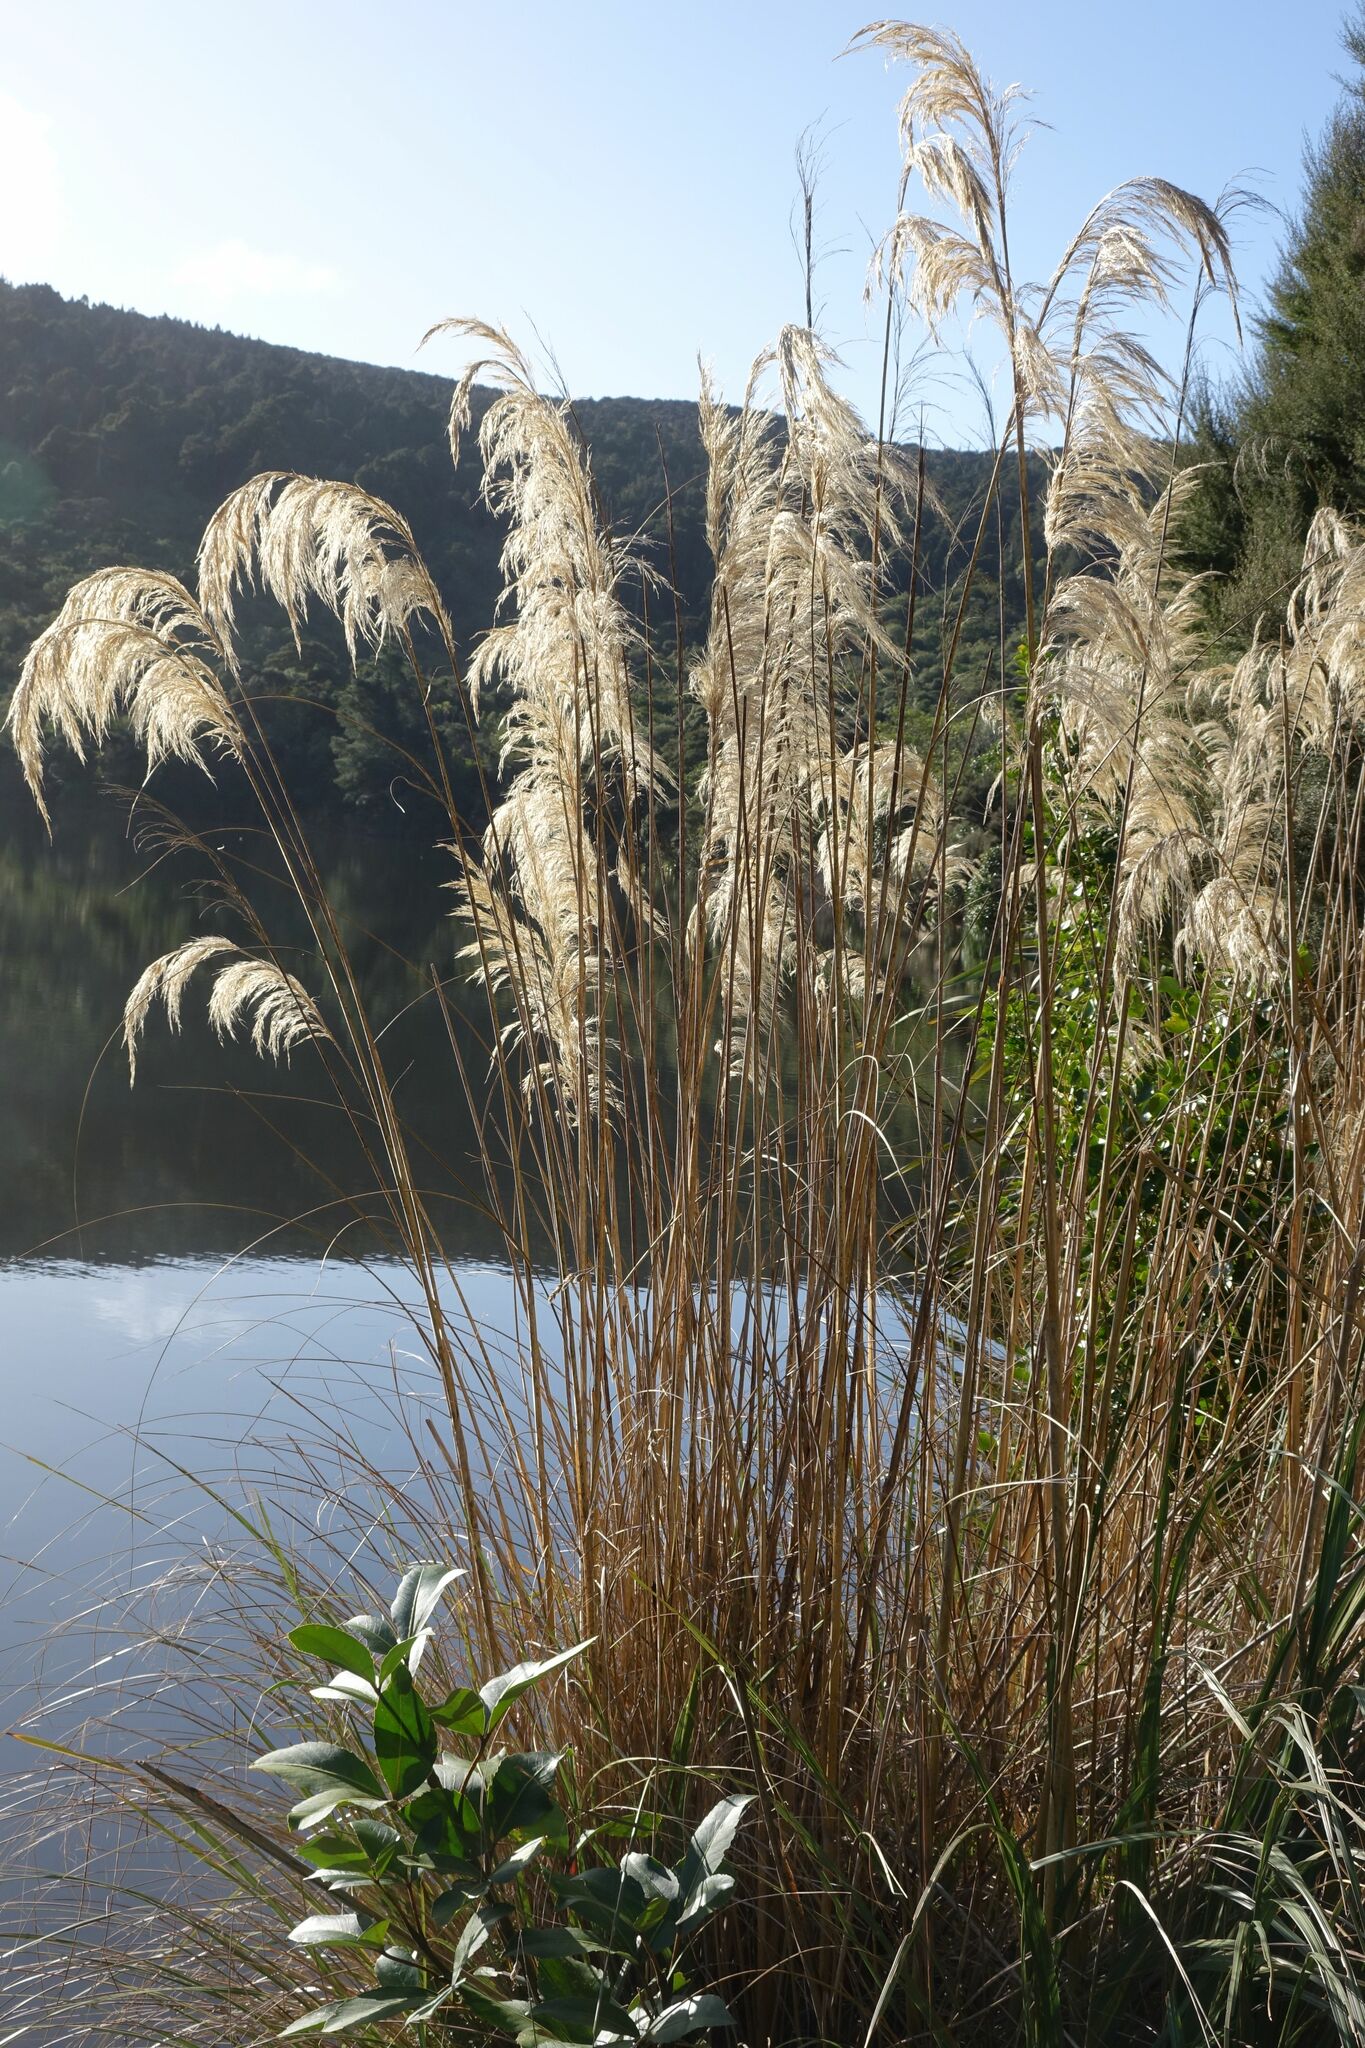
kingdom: Plantae
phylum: Tracheophyta
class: Liliopsida
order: Poales
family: Poaceae
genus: Austroderia
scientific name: Austroderia richardii
